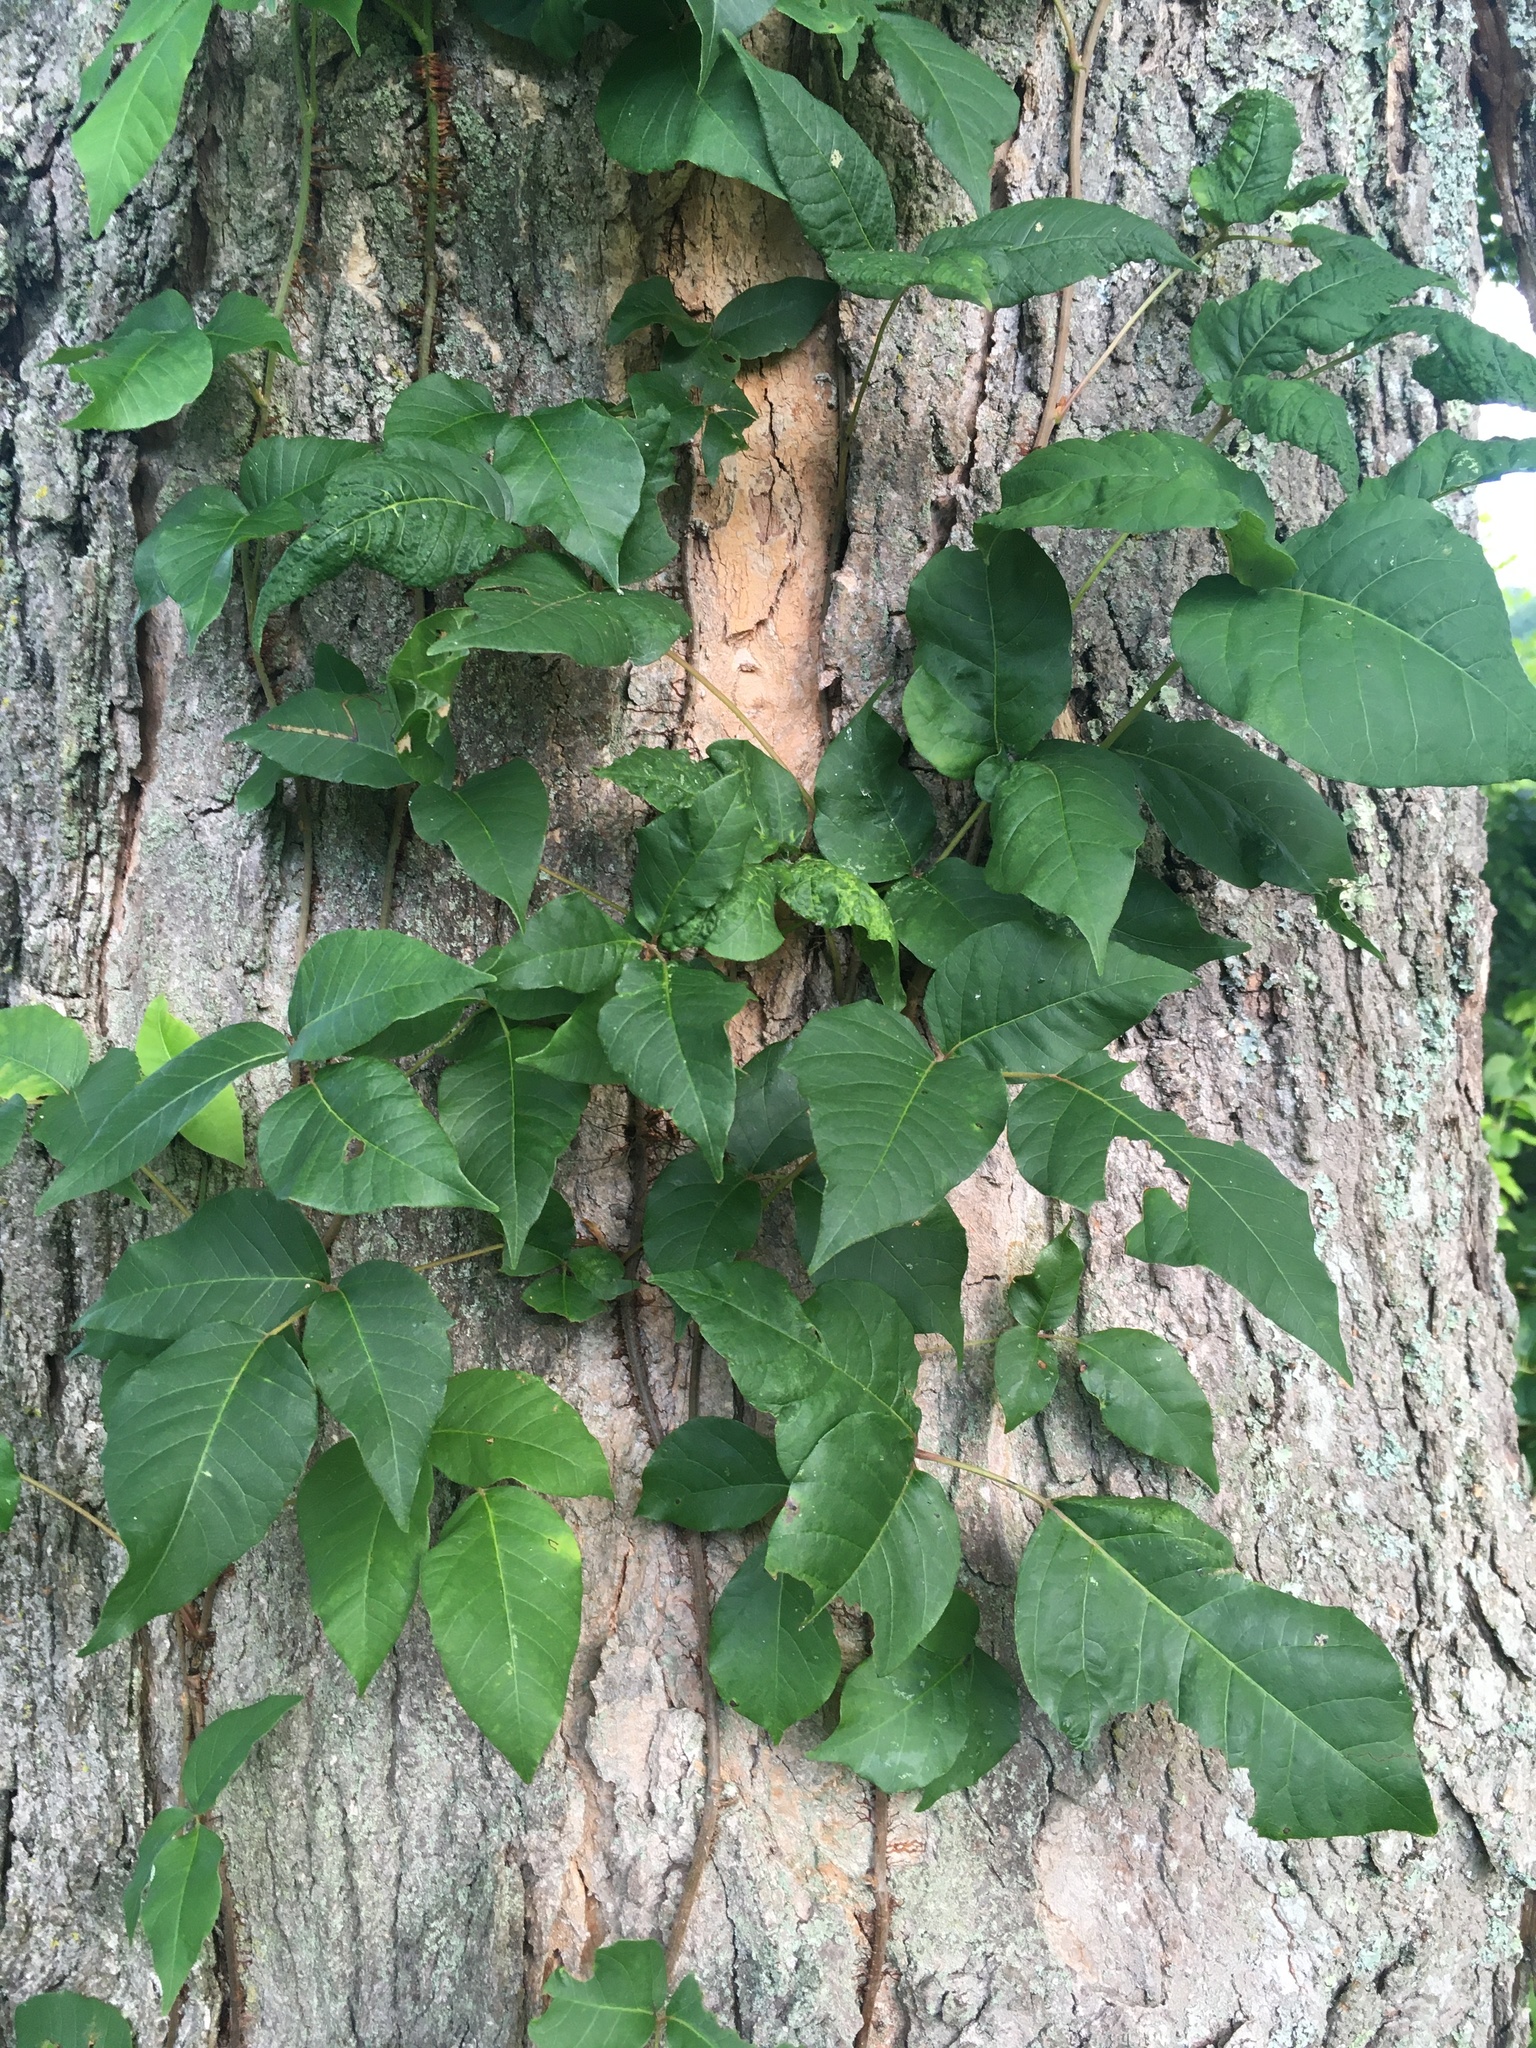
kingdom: Plantae
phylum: Tracheophyta
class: Magnoliopsida
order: Sapindales
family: Anacardiaceae
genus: Toxicodendron
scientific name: Toxicodendron radicans
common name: Poison ivy
